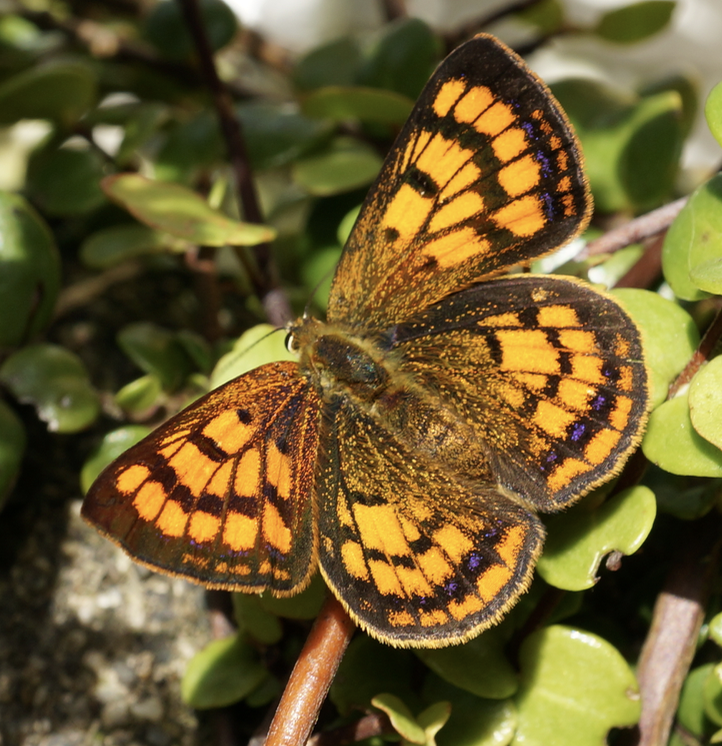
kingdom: Animalia
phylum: Arthropoda
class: Insecta
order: Lepidoptera
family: Lycaenidae
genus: Lycaena
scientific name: Lycaena salustius
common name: North island coastal copper
